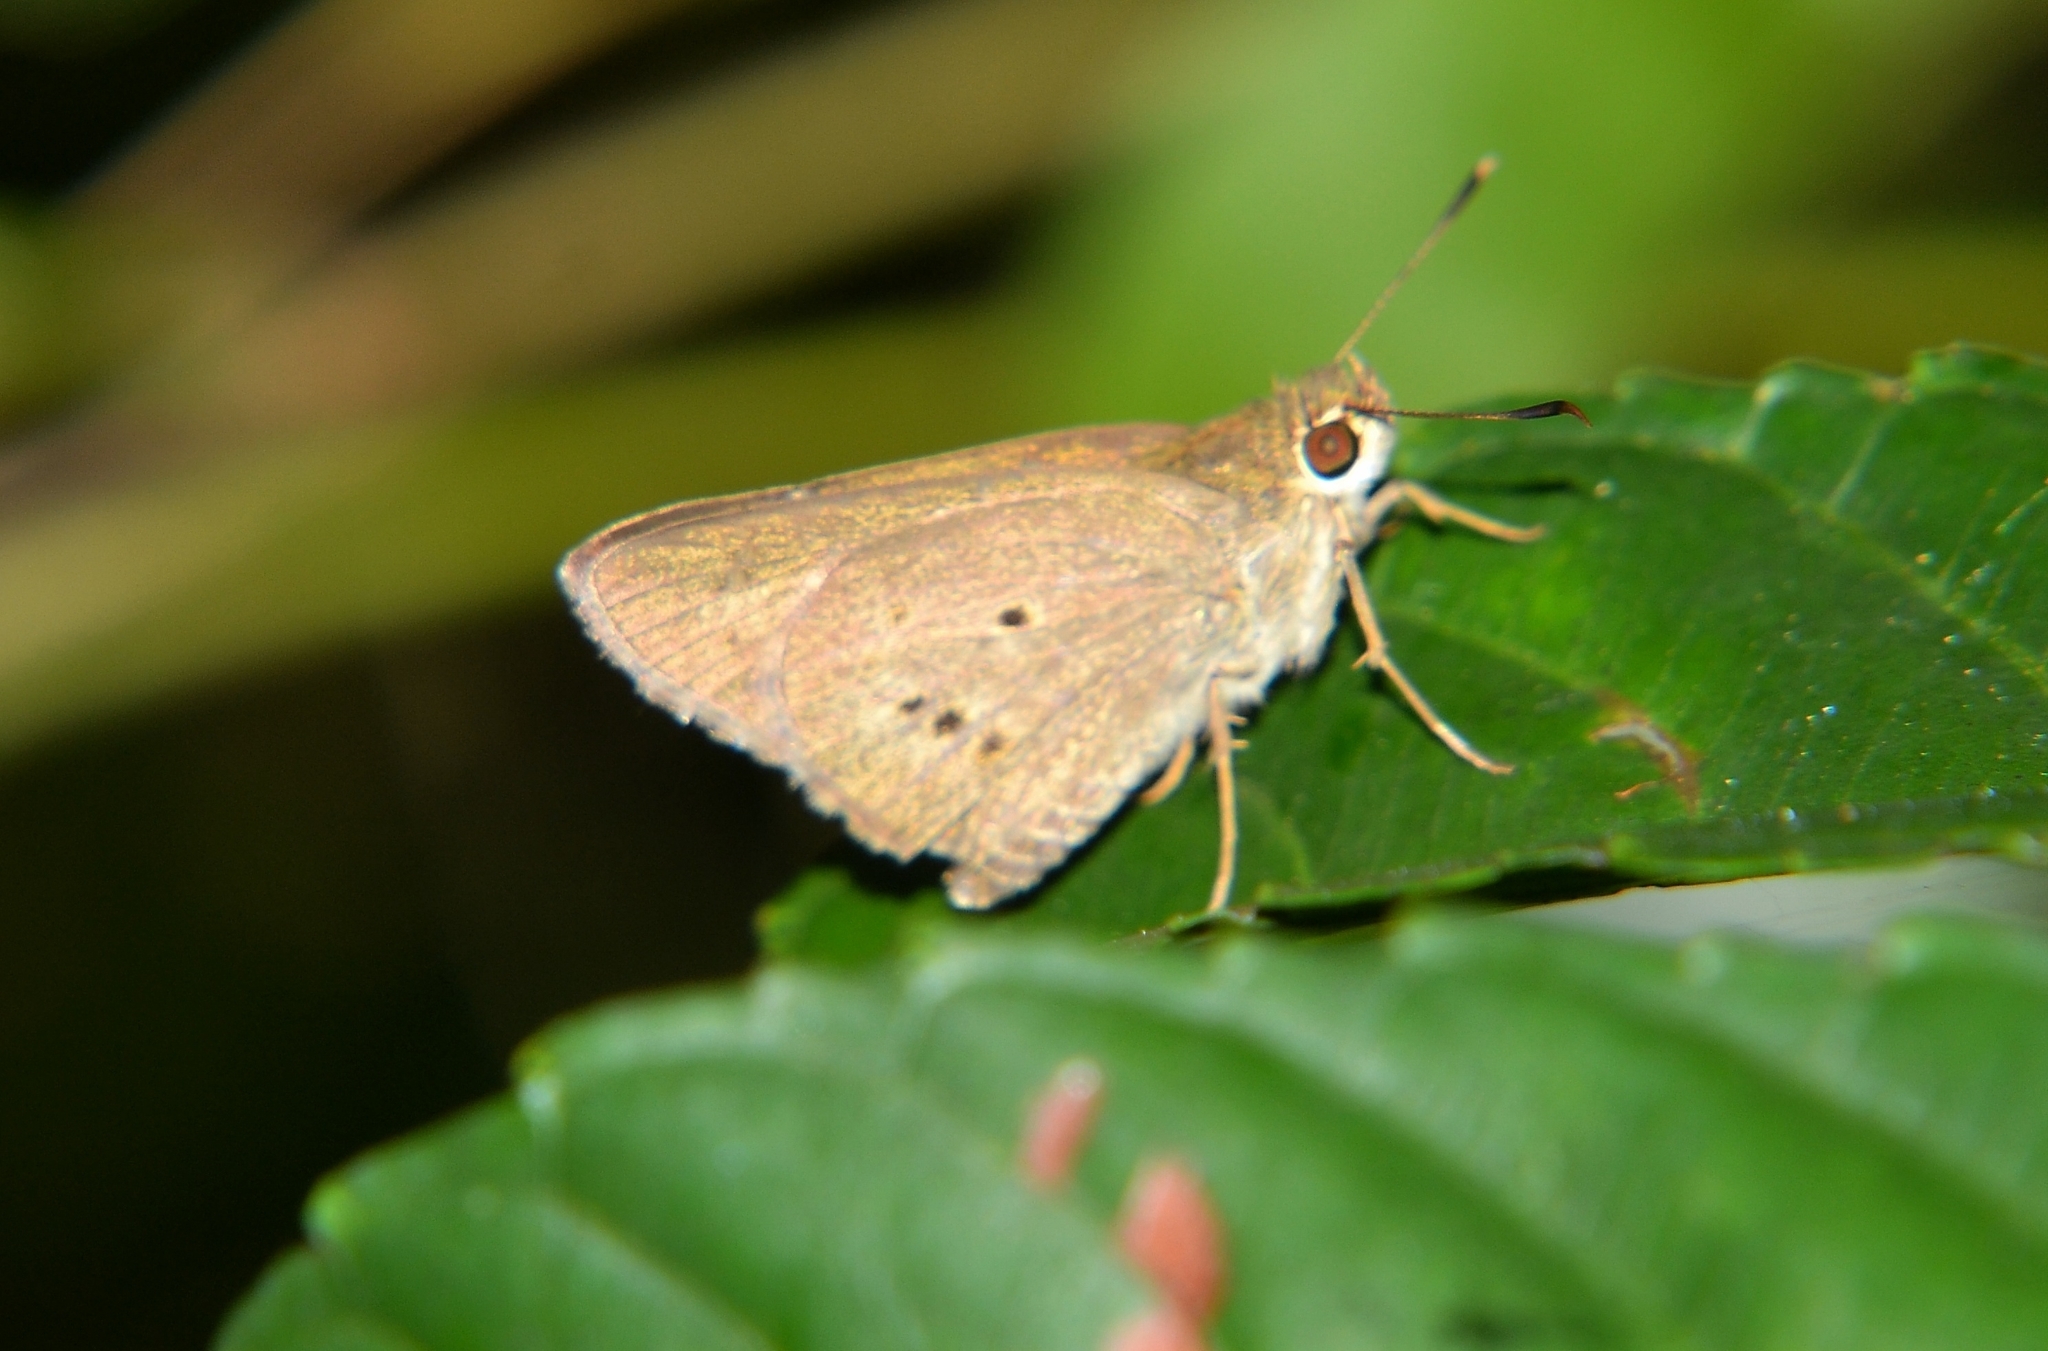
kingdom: Animalia
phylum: Arthropoda
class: Insecta
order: Lepidoptera
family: Hesperiidae
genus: Suastus
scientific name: Suastus gremius
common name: Indian palm bob
